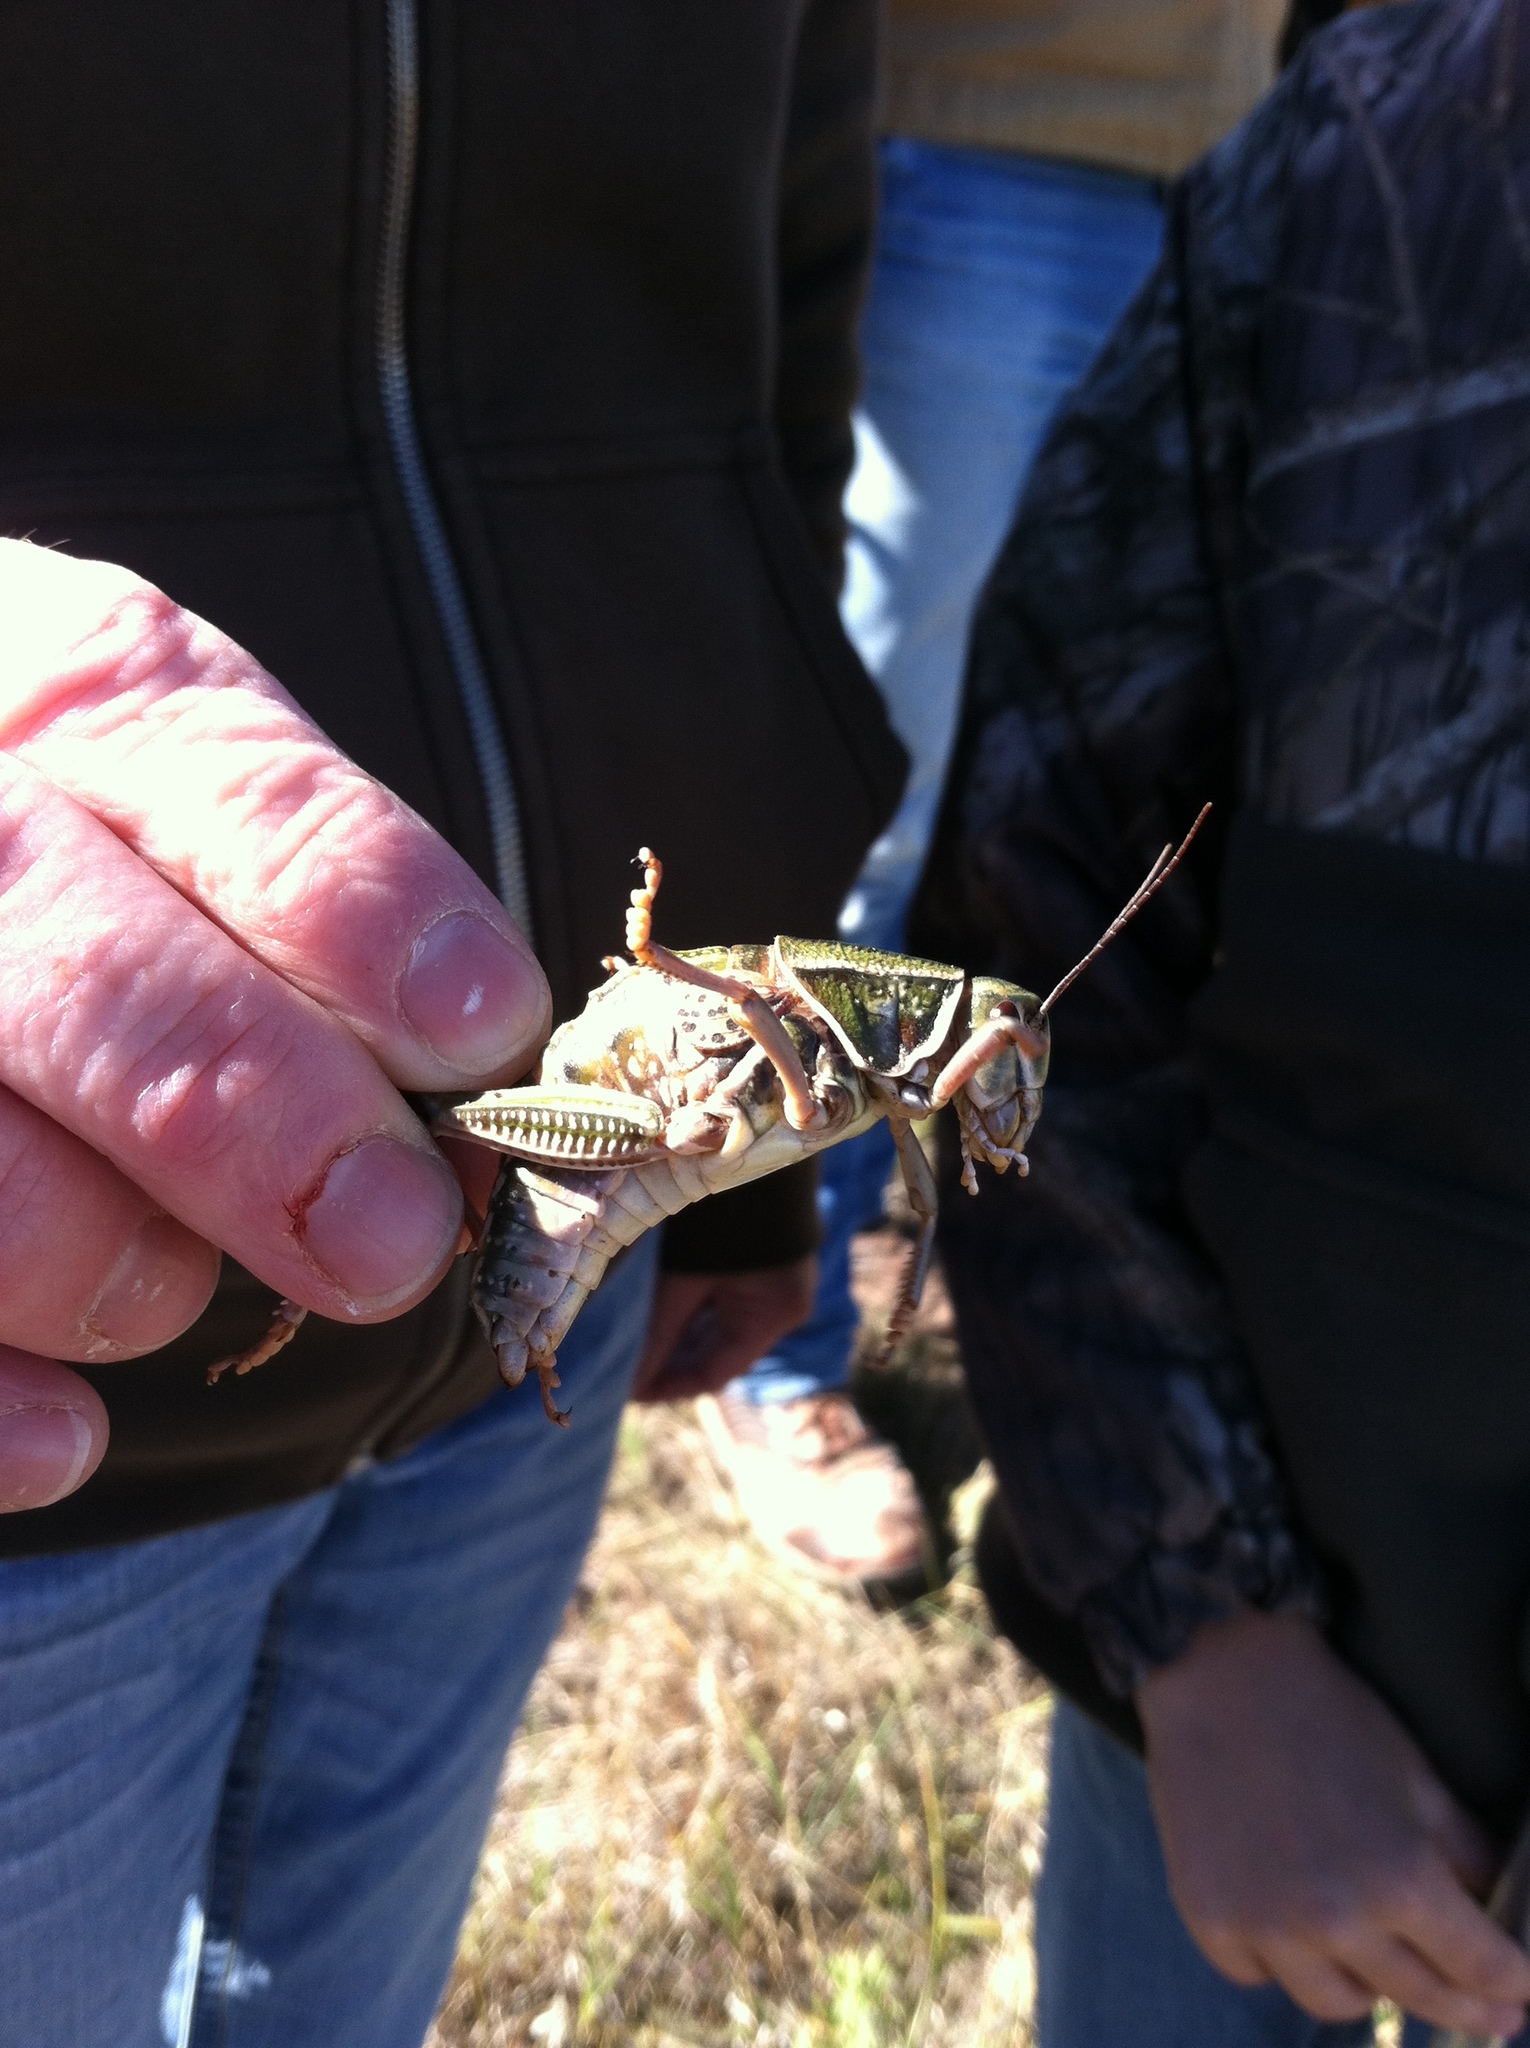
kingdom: Animalia
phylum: Arthropoda
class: Insecta
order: Orthoptera
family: Romaleidae
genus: Brachystola
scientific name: Brachystola magna
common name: Plains lubber grasshopper
